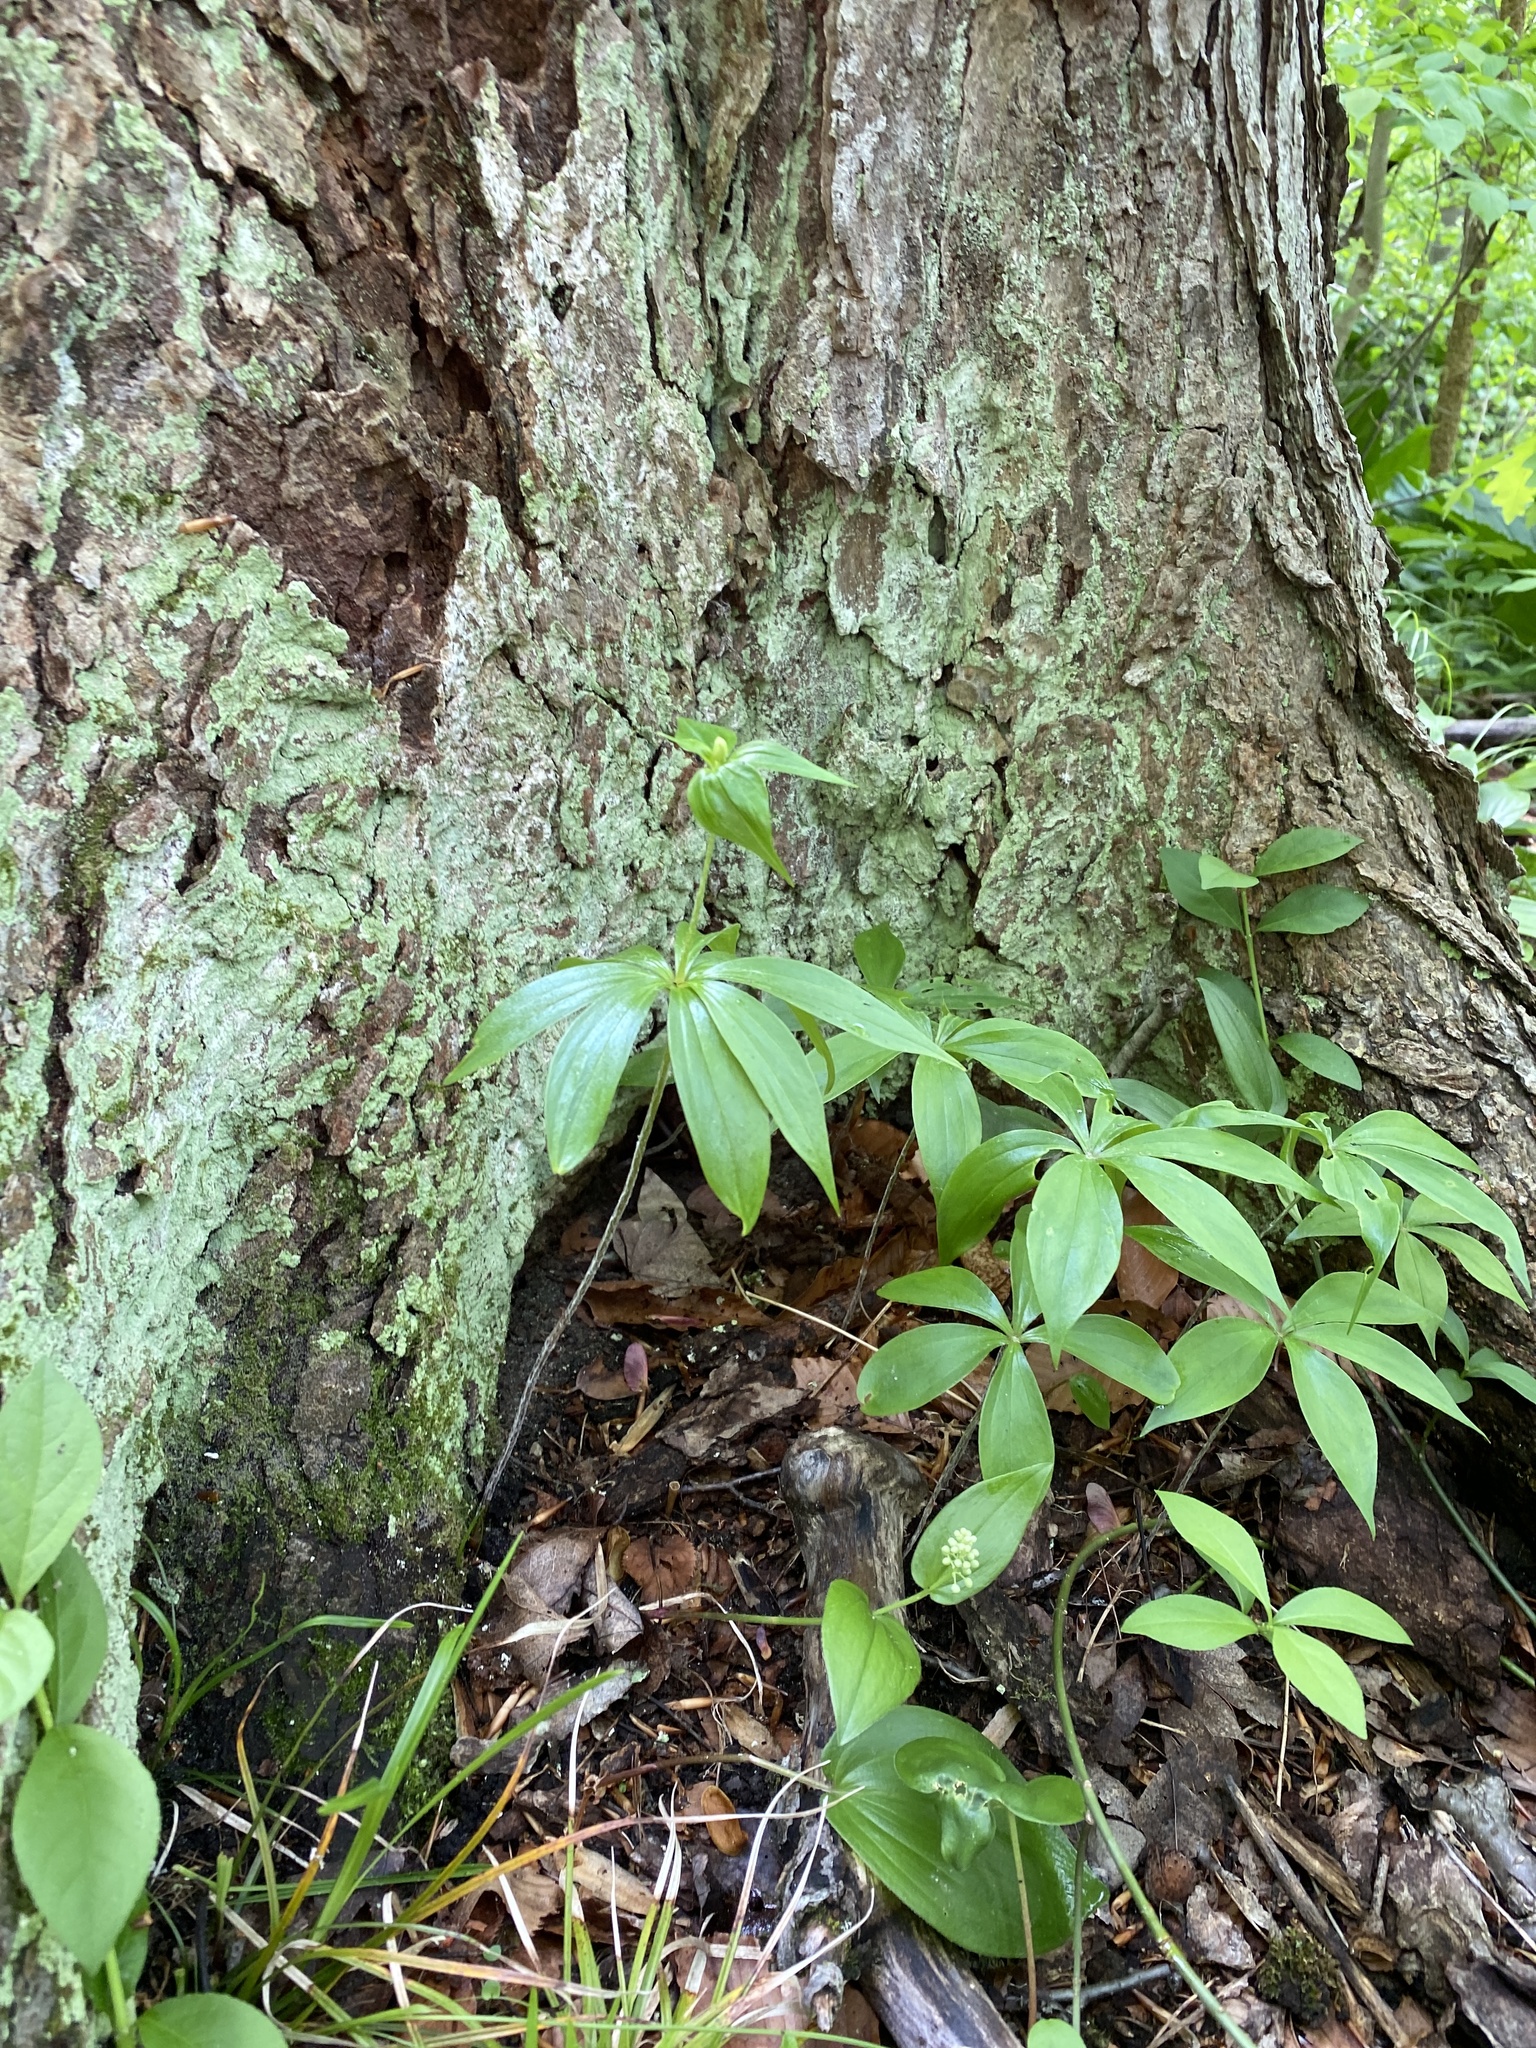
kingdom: Plantae
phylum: Tracheophyta
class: Liliopsida
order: Liliales
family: Liliaceae
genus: Medeola
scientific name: Medeola virginiana
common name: Indian cucumber-root
